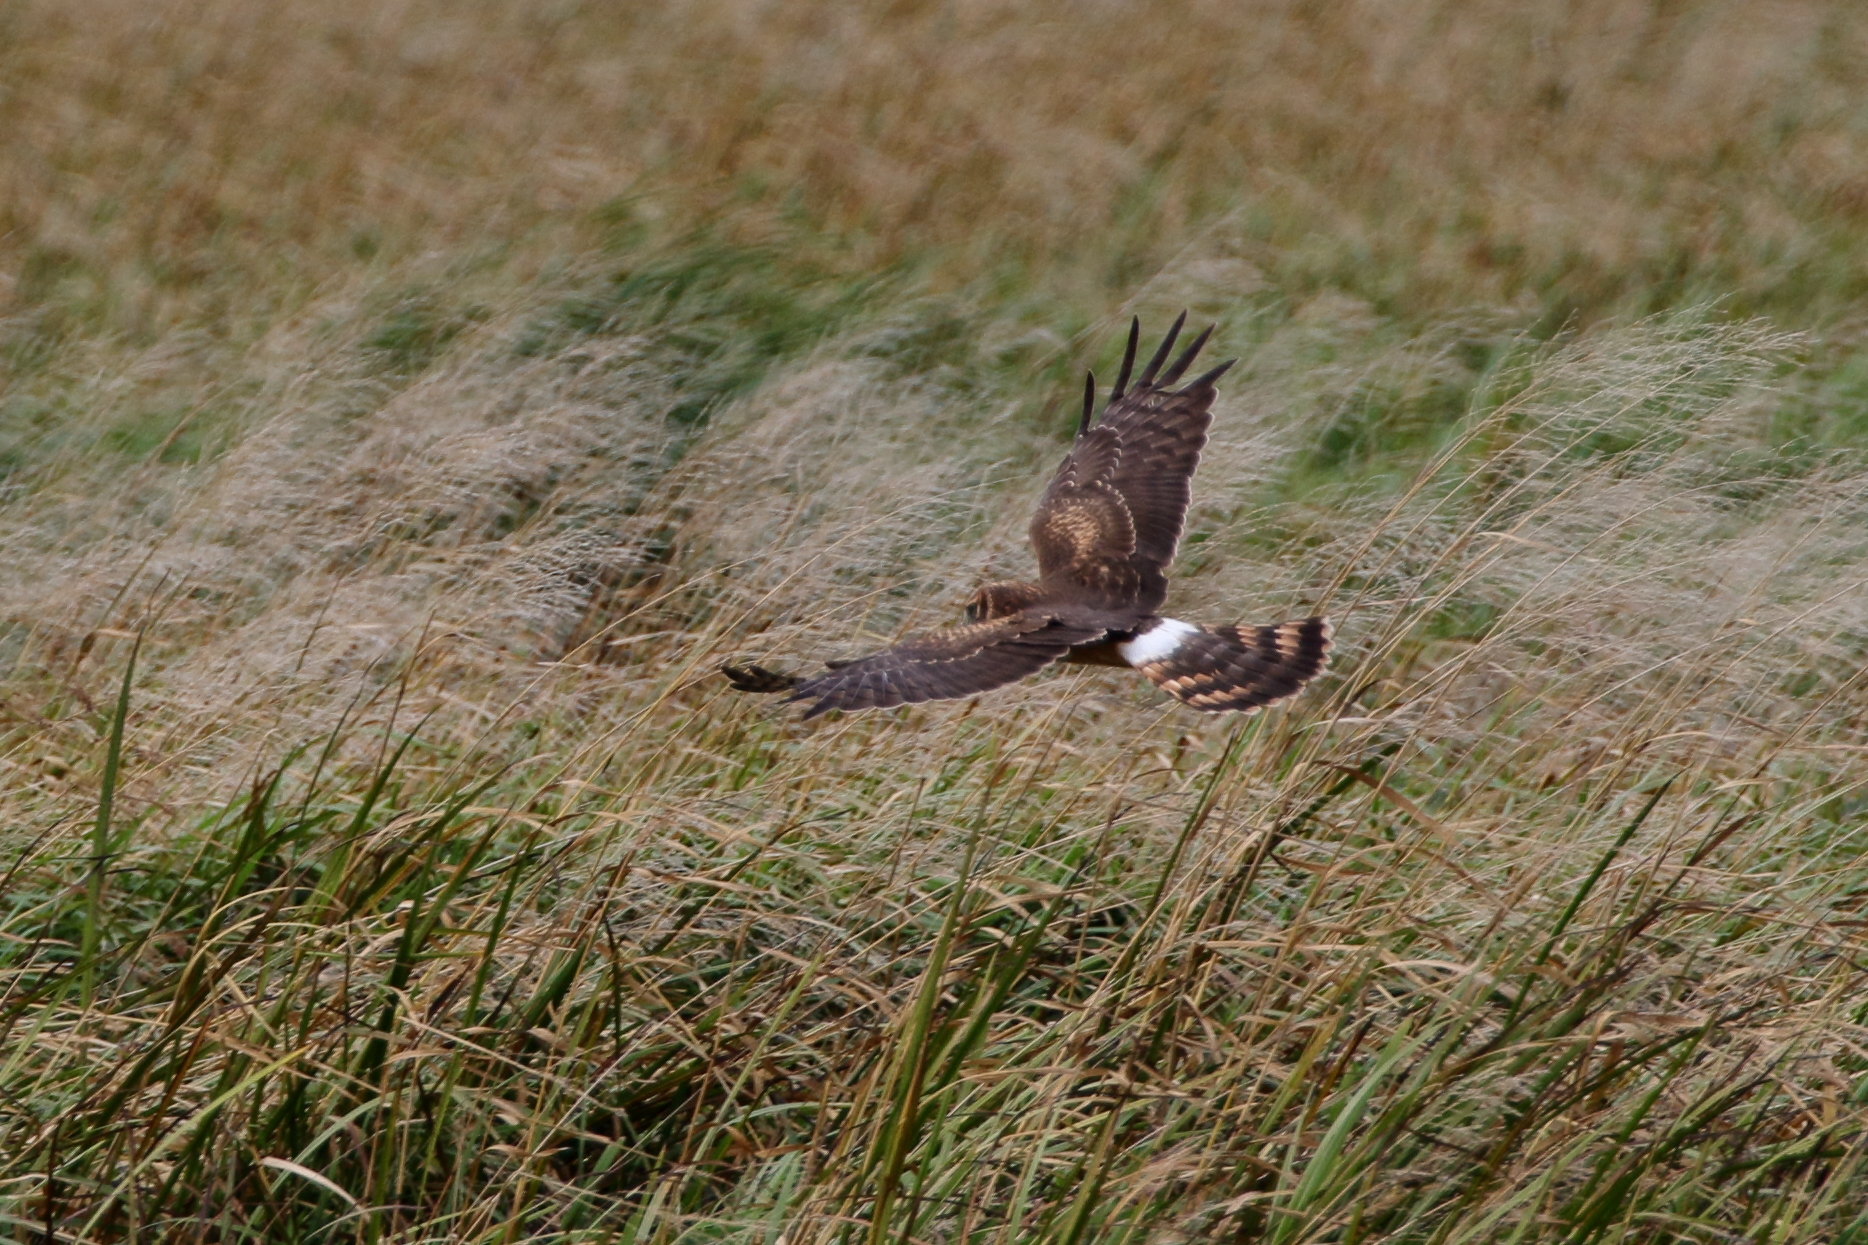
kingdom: Animalia
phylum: Chordata
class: Aves
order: Accipitriformes
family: Accipitridae
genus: Circus
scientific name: Circus cyaneus
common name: Hen harrier
